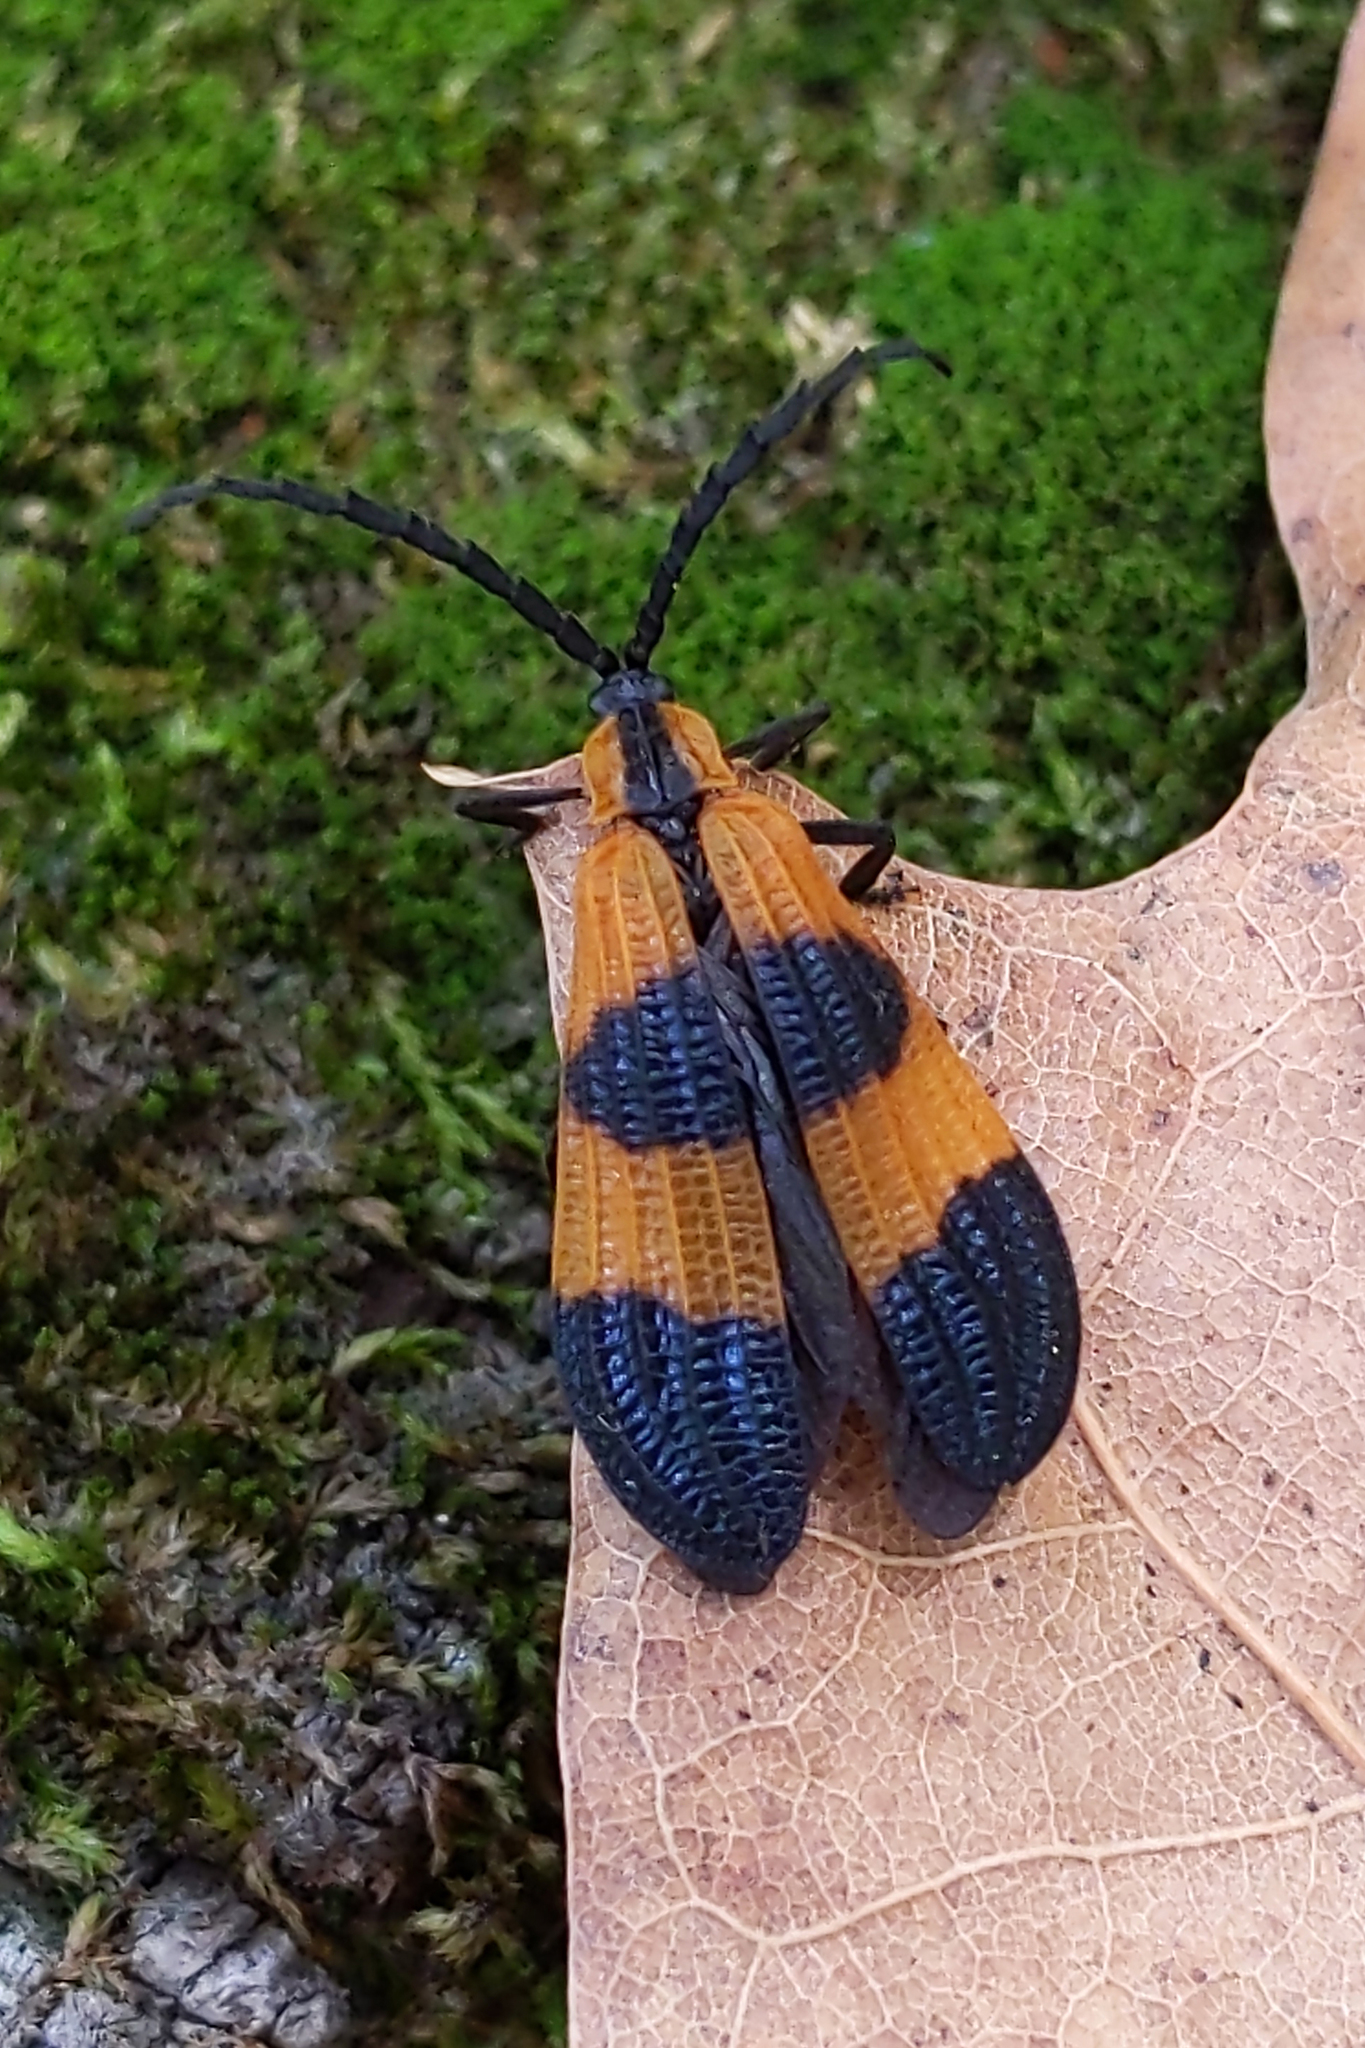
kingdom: Animalia
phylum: Arthropoda
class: Insecta
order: Coleoptera
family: Lycidae
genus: Calopteron
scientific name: Calopteron terminale
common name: End band net-winged beetle
